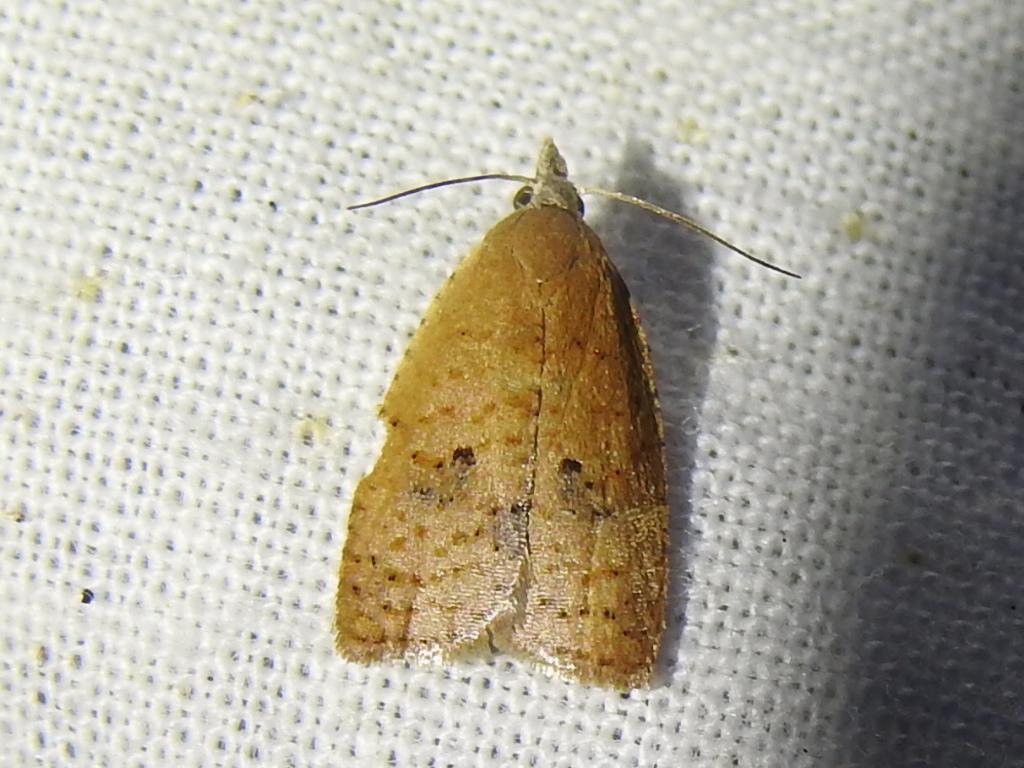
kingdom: Animalia
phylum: Arthropoda
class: Insecta
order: Lepidoptera
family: Tortricidae
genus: Sparganothoides
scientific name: Sparganothoides lentiginosana
